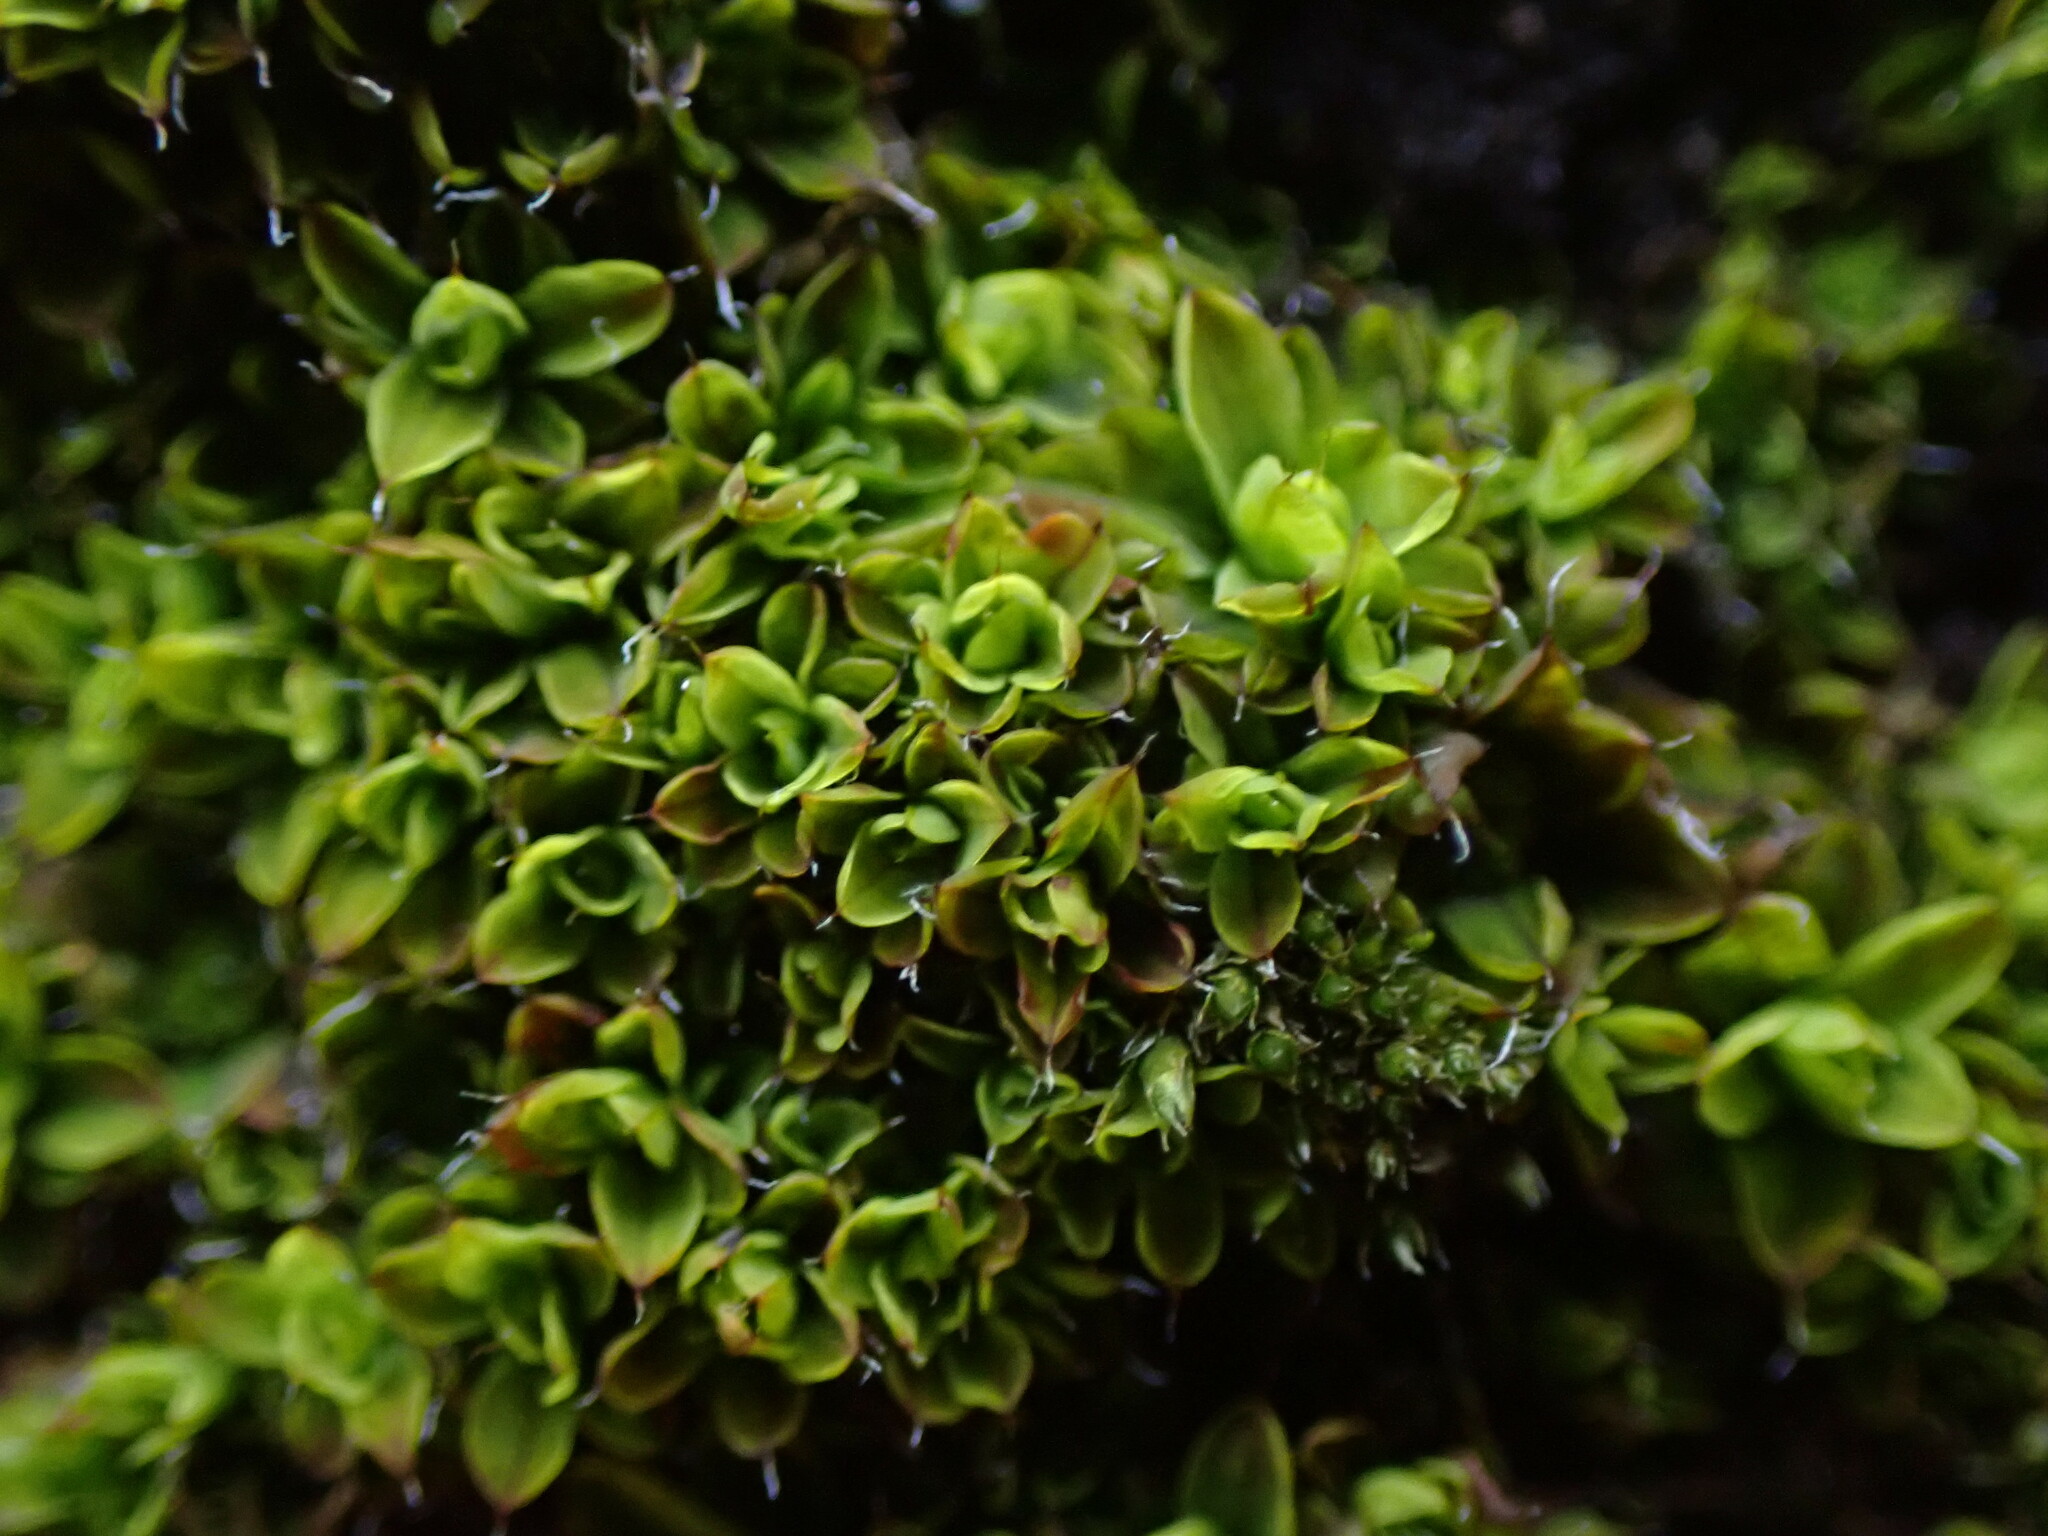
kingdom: Plantae
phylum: Bryophyta
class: Bryopsida
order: Pottiales
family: Pottiaceae
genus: Syntrichia
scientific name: Syntrichia pagorum
